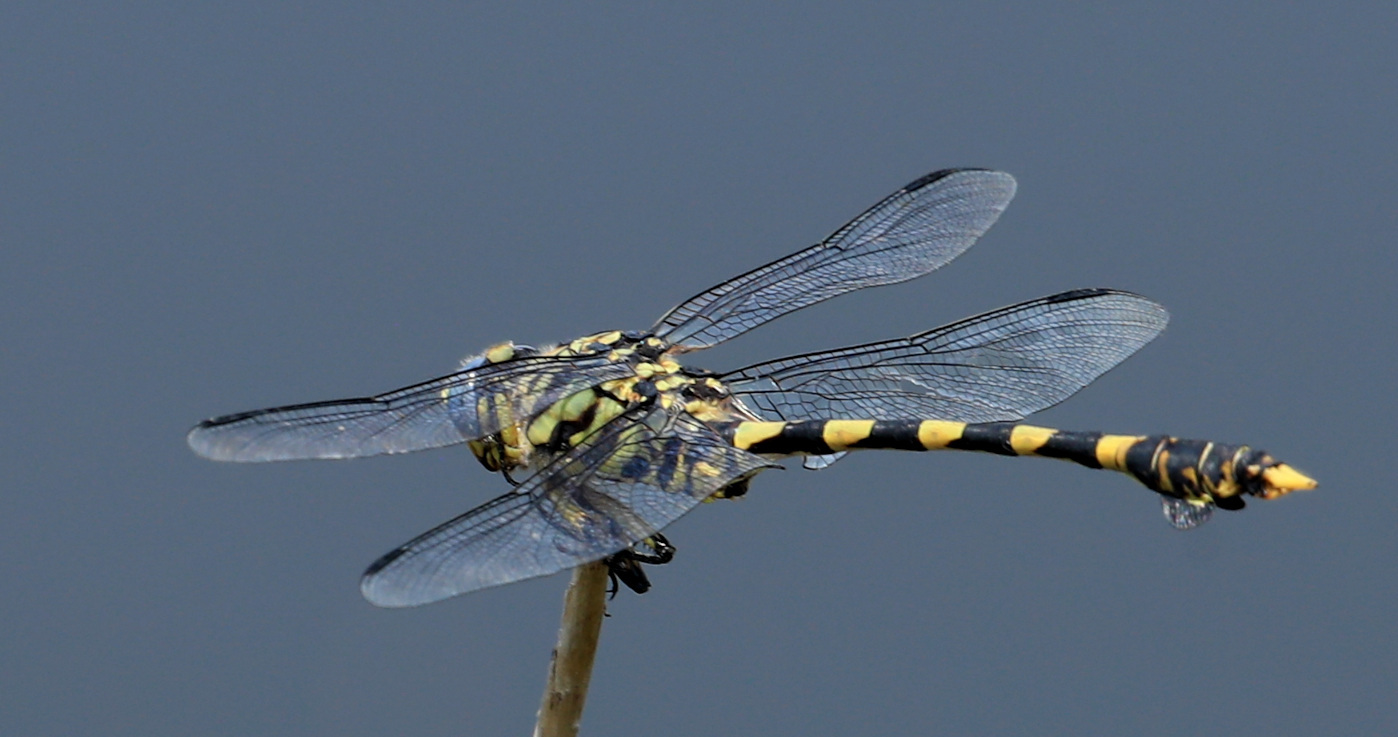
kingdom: Animalia
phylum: Arthropoda
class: Insecta
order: Odonata
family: Gomphidae
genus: Ictinogomphus
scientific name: Ictinogomphus ferox
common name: Common tiger
